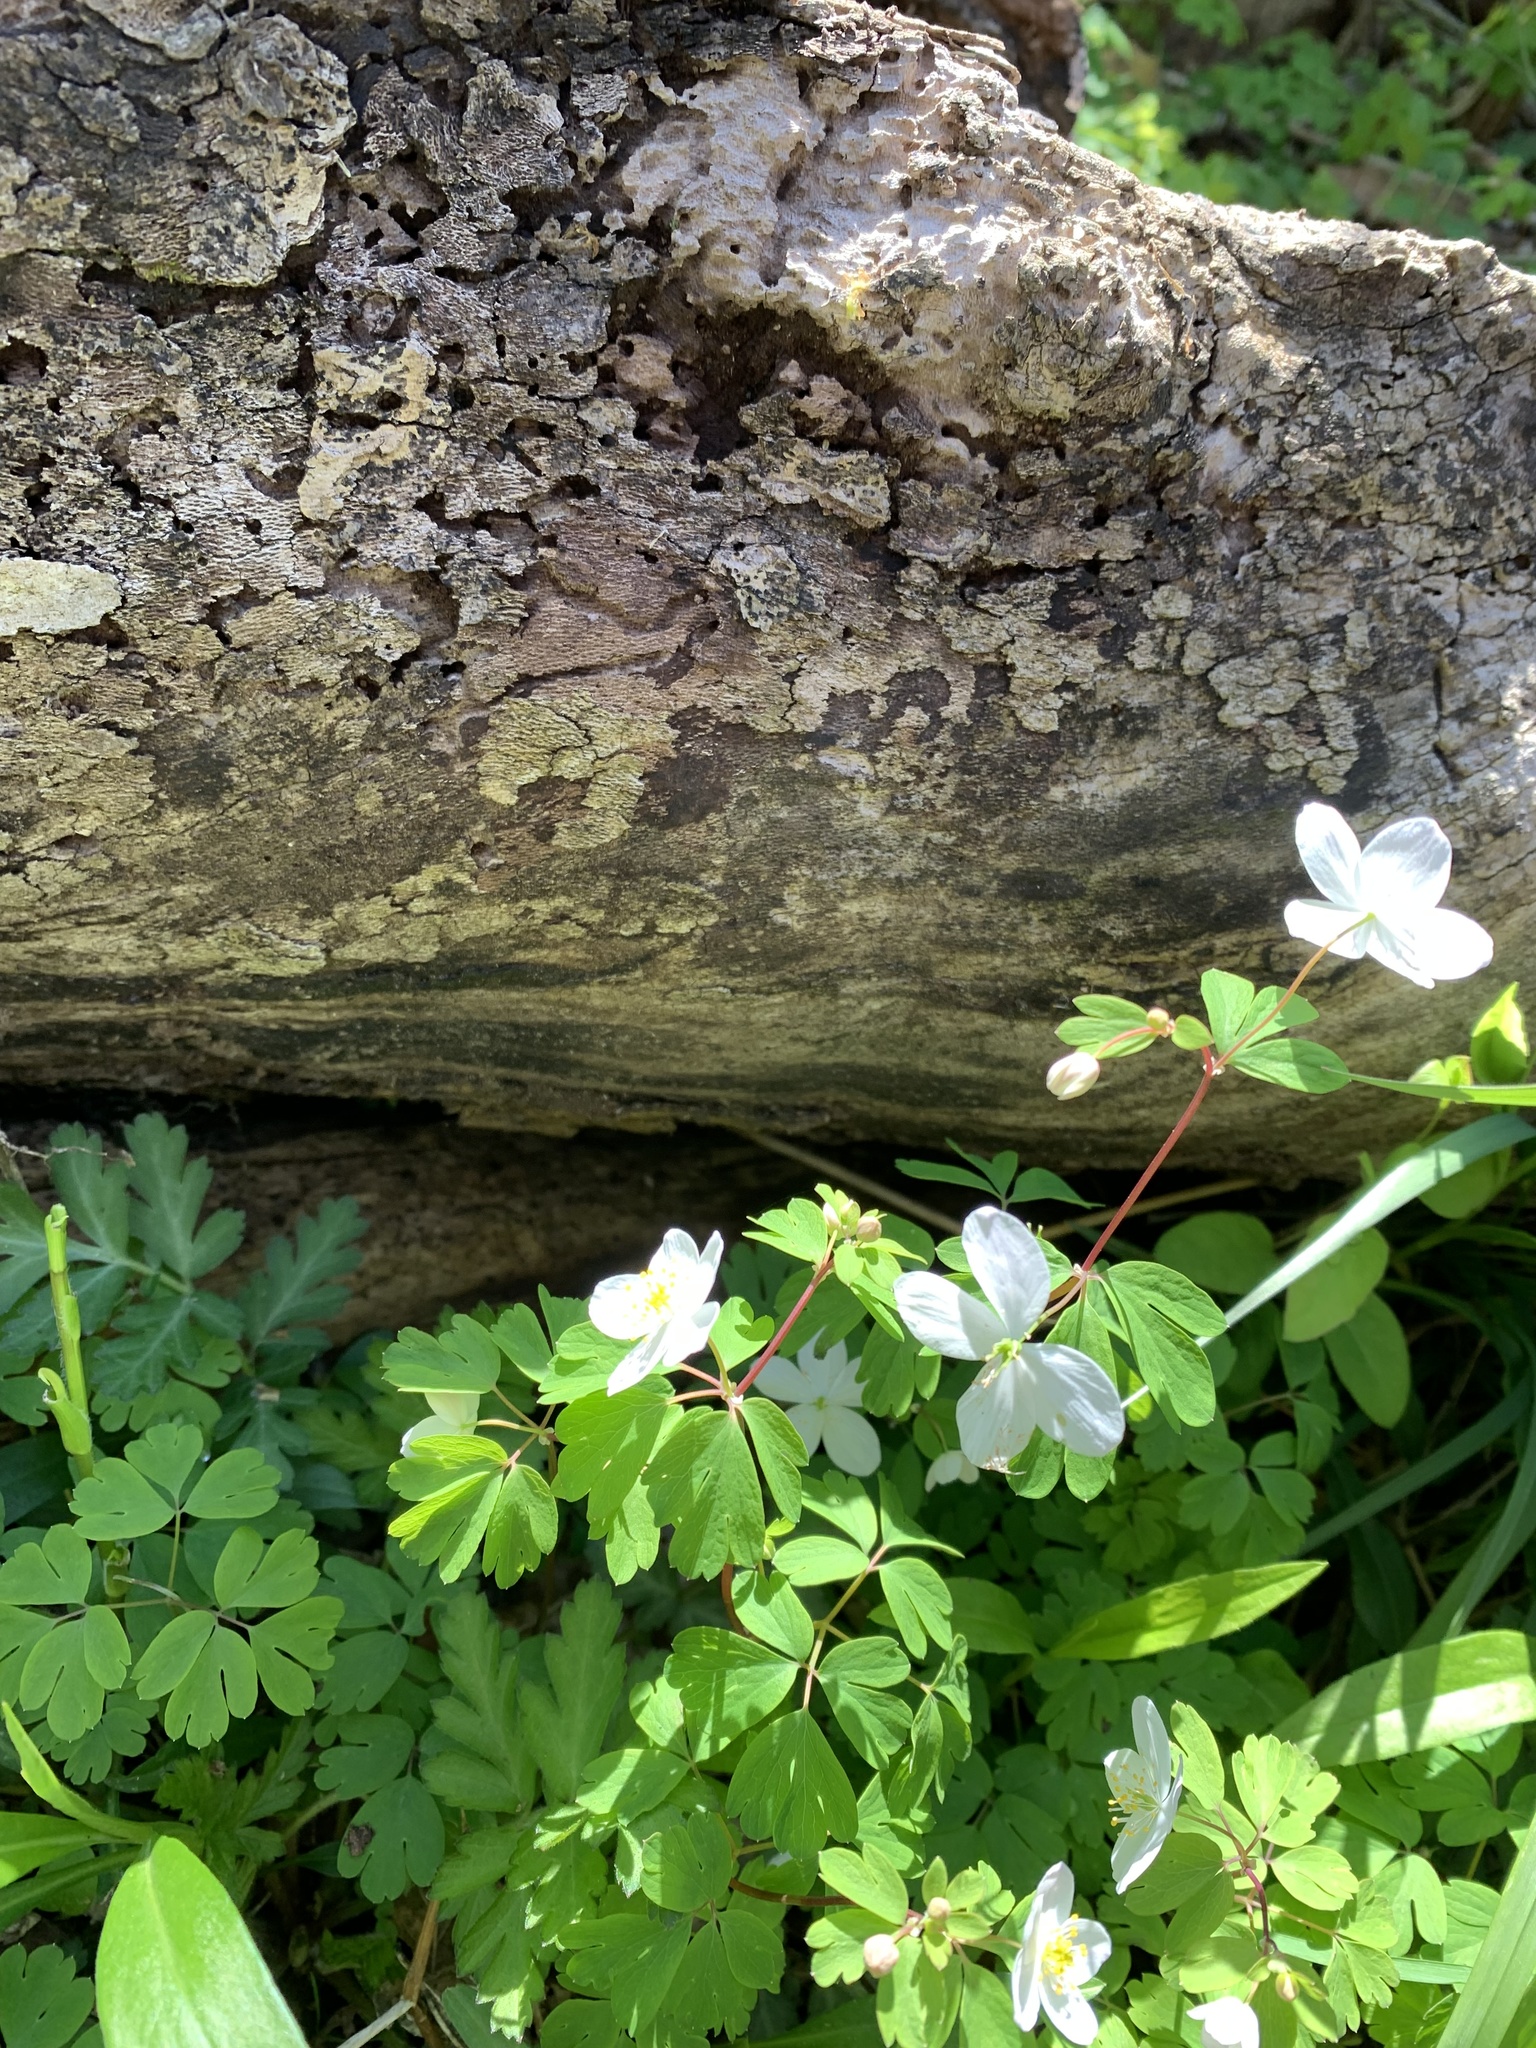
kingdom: Plantae
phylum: Tracheophyta
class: Magnoliopsida
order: Ranunculales
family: Ranunculaceae
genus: Enemion
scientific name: Enemion biternatum
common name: Eastern false rue-anemone
